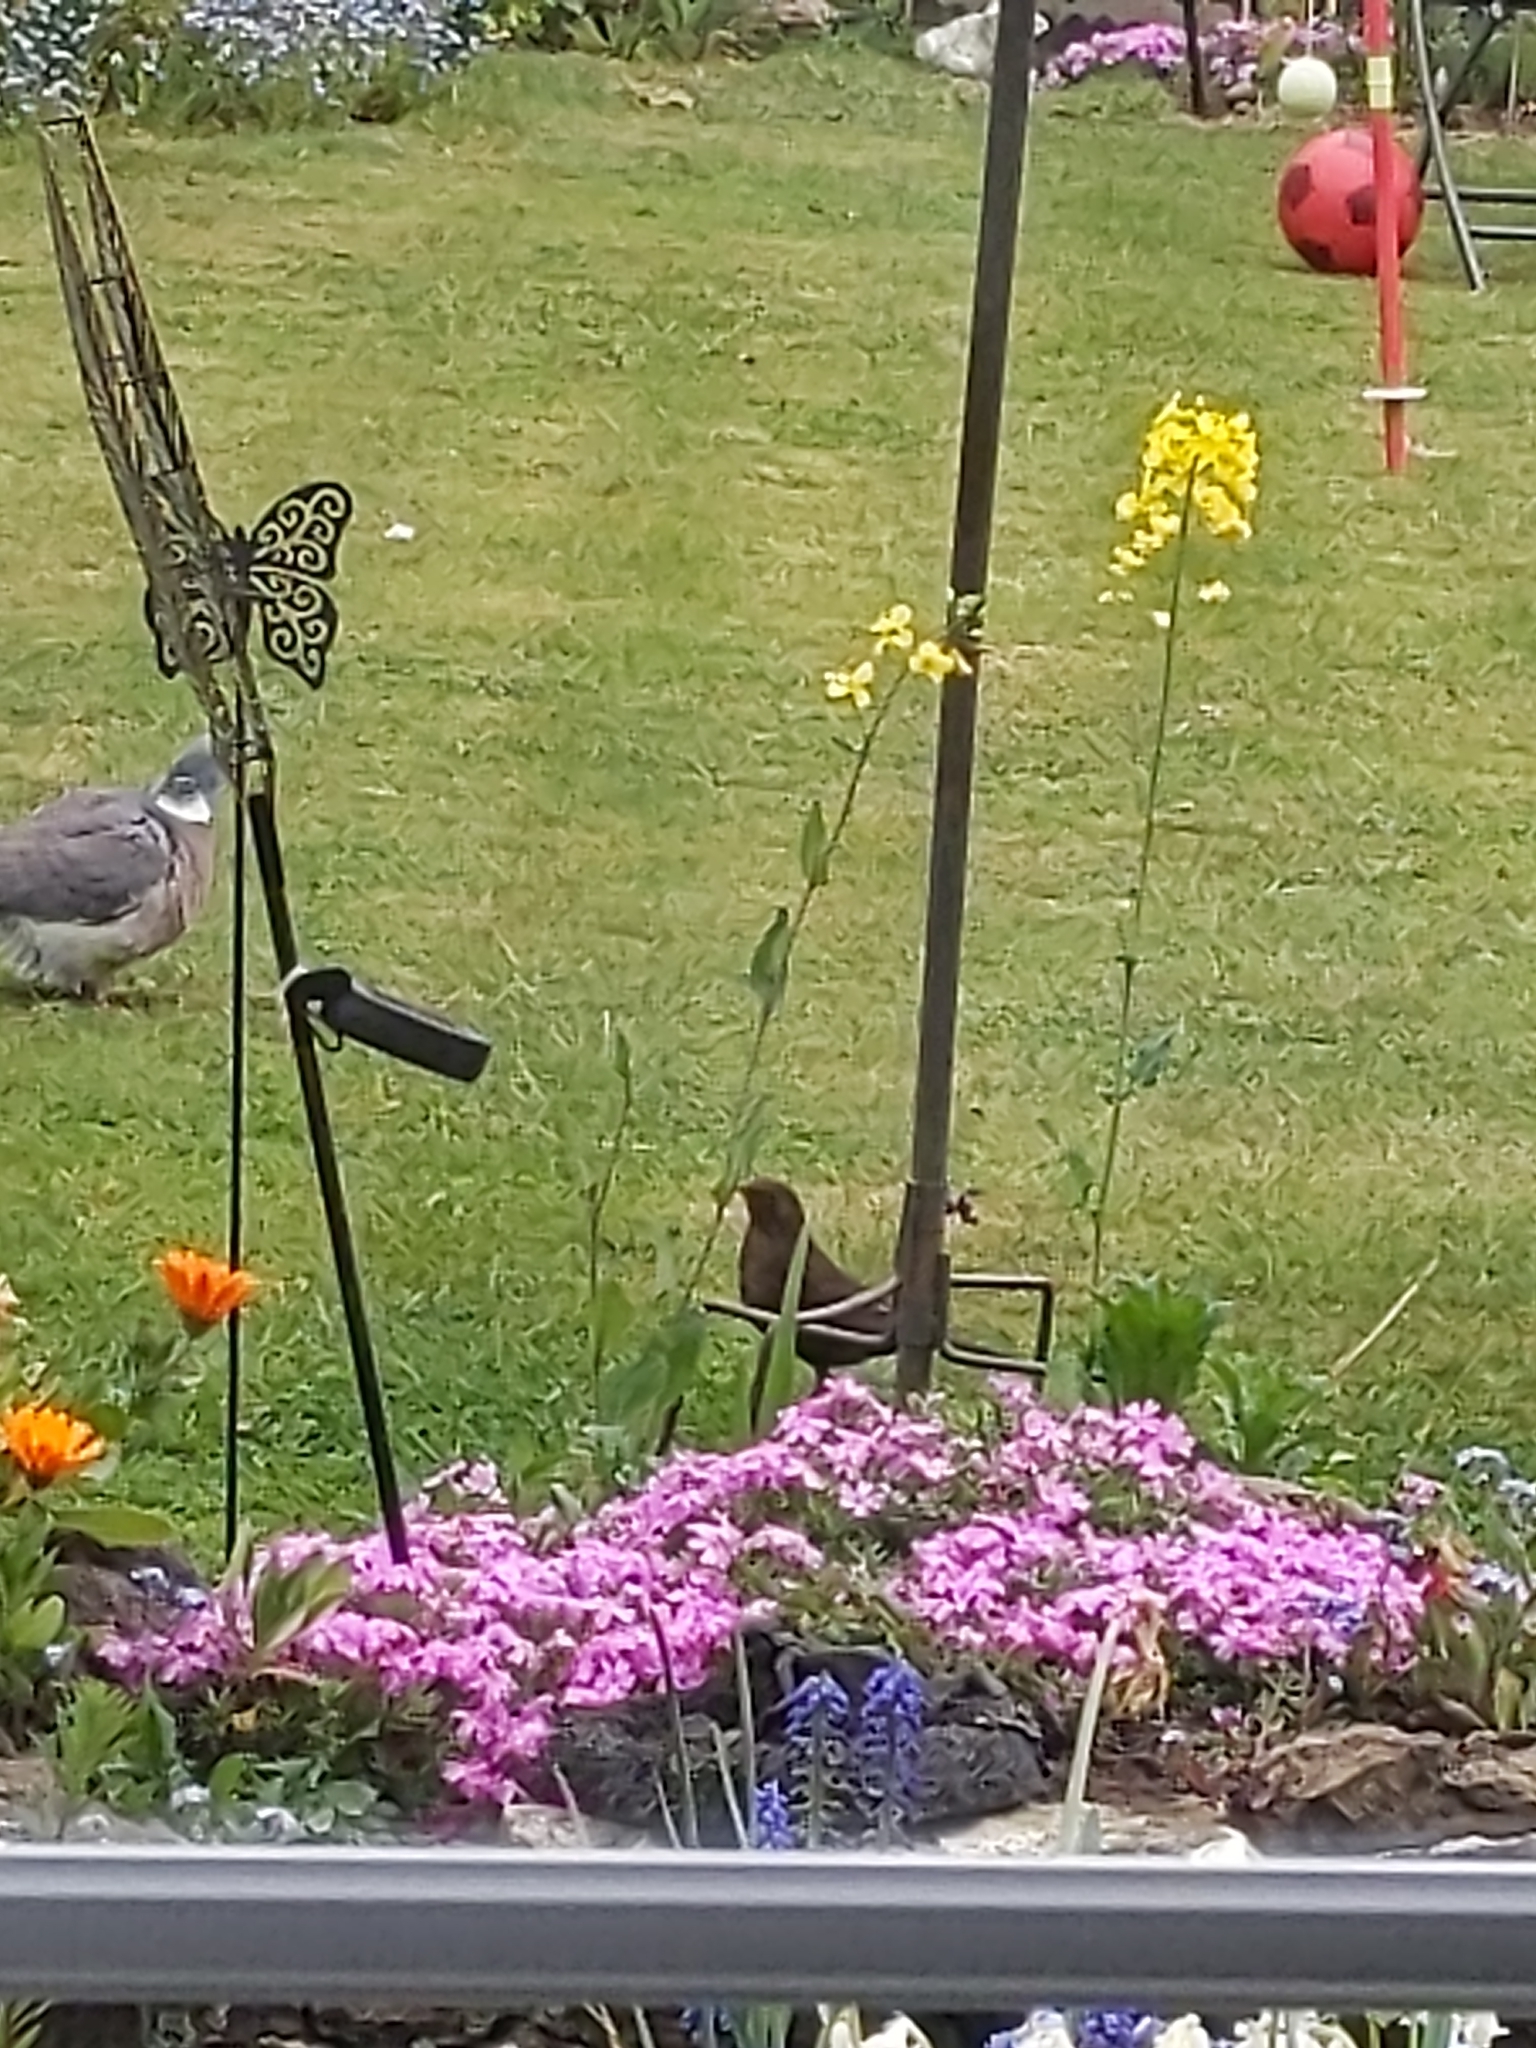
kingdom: Animalia
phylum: Chordata
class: Aves
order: Passeriformes
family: Turdidae
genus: Turdus
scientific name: Turdus merula
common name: Common blackbird
